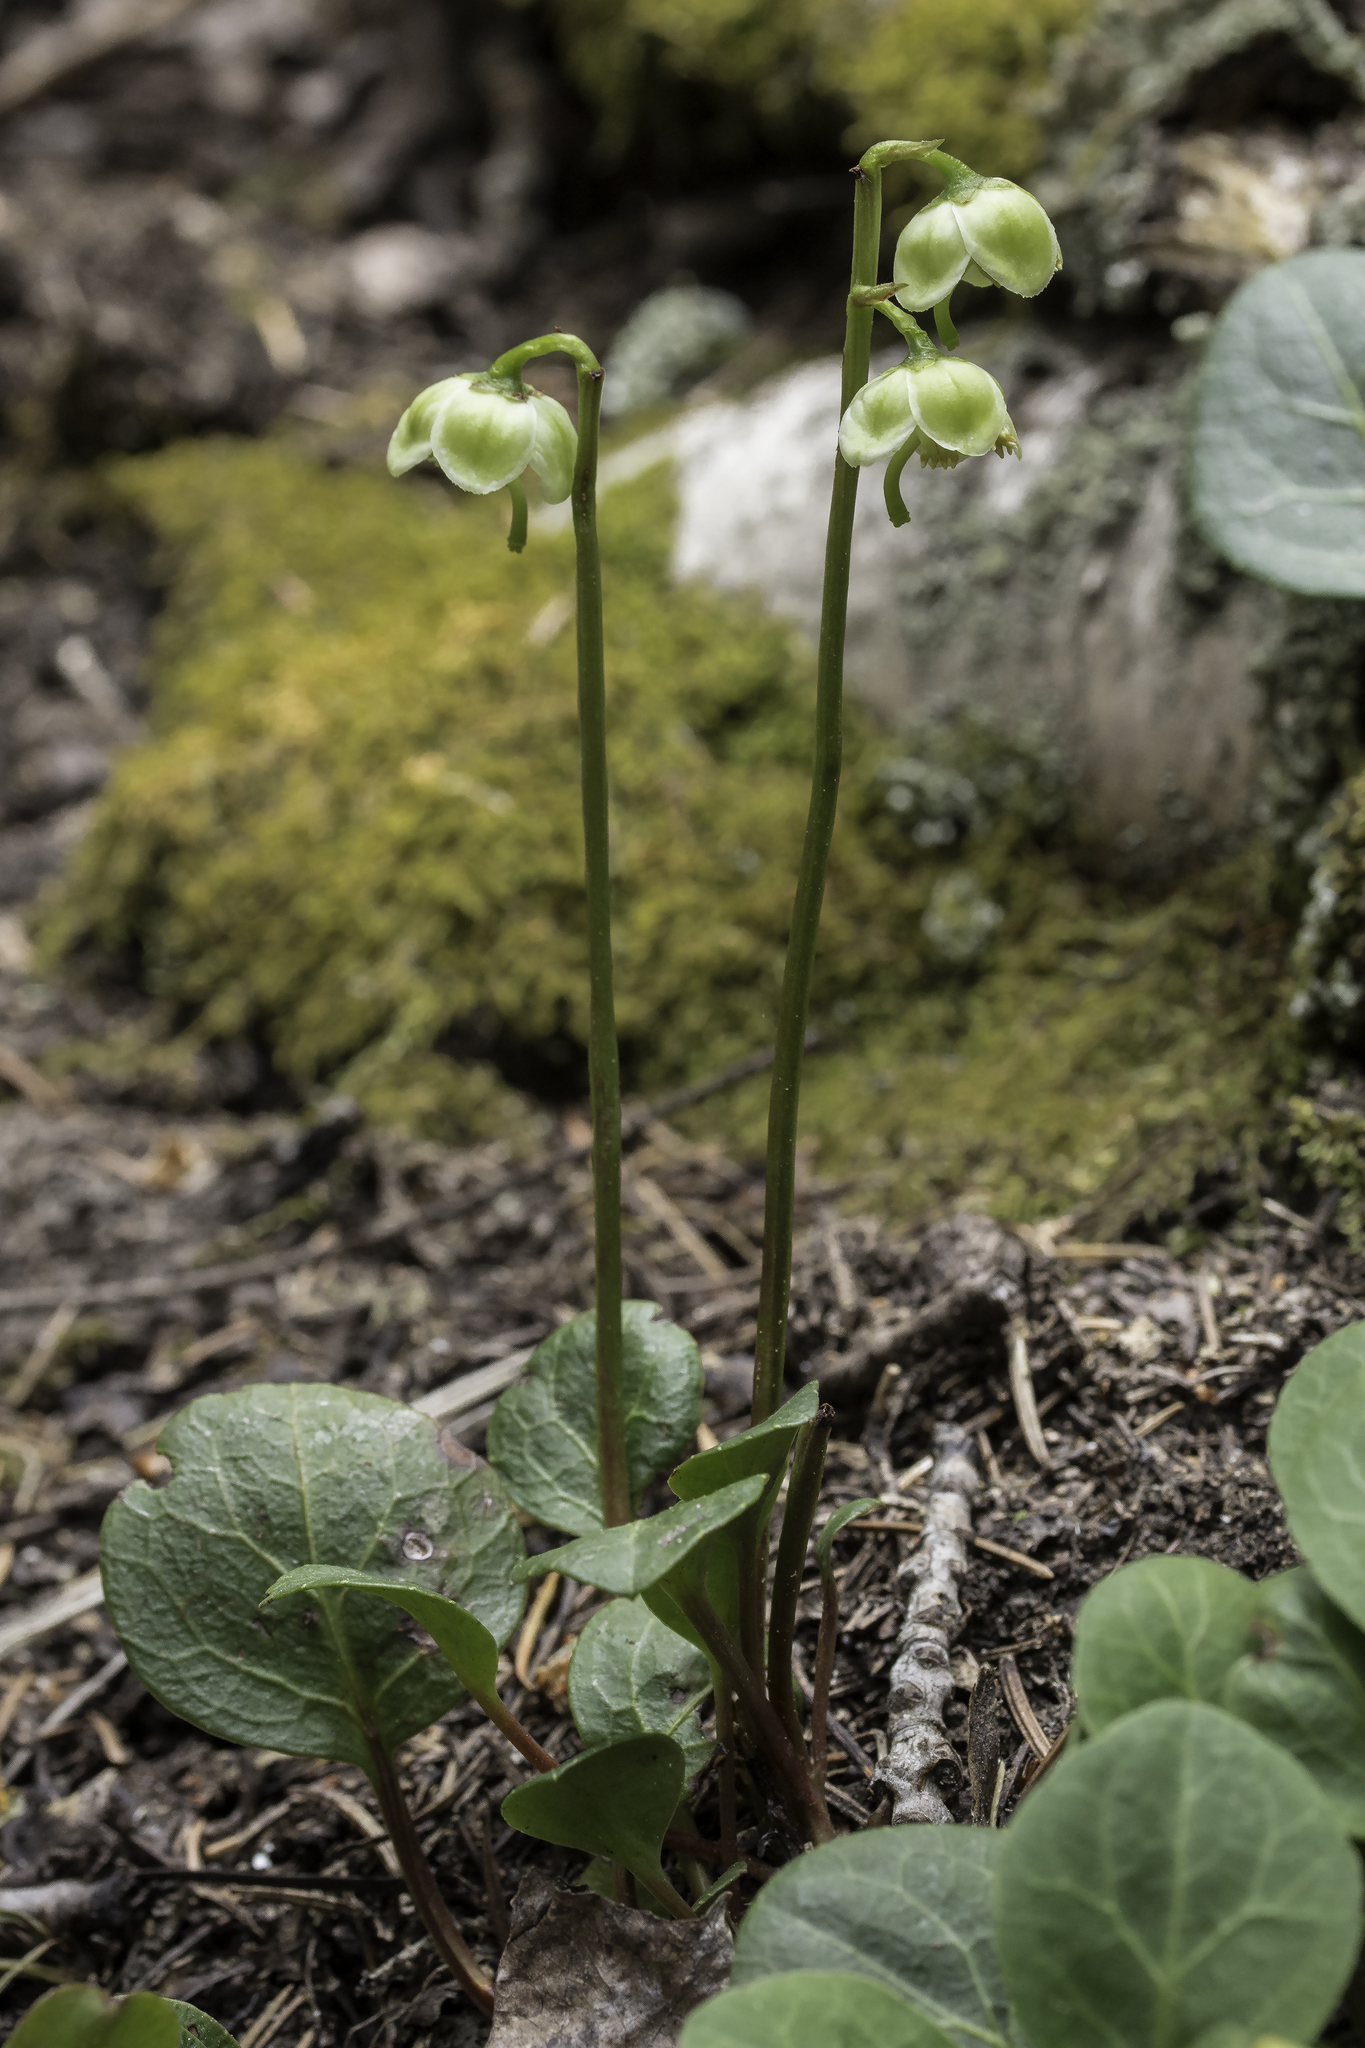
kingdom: Plantae
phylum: Tracheophyta
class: Magnoliopsida
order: Ericales
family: Ericaceae
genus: Pyrola
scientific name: Pyrola chlorantha
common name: Green wintergreen
